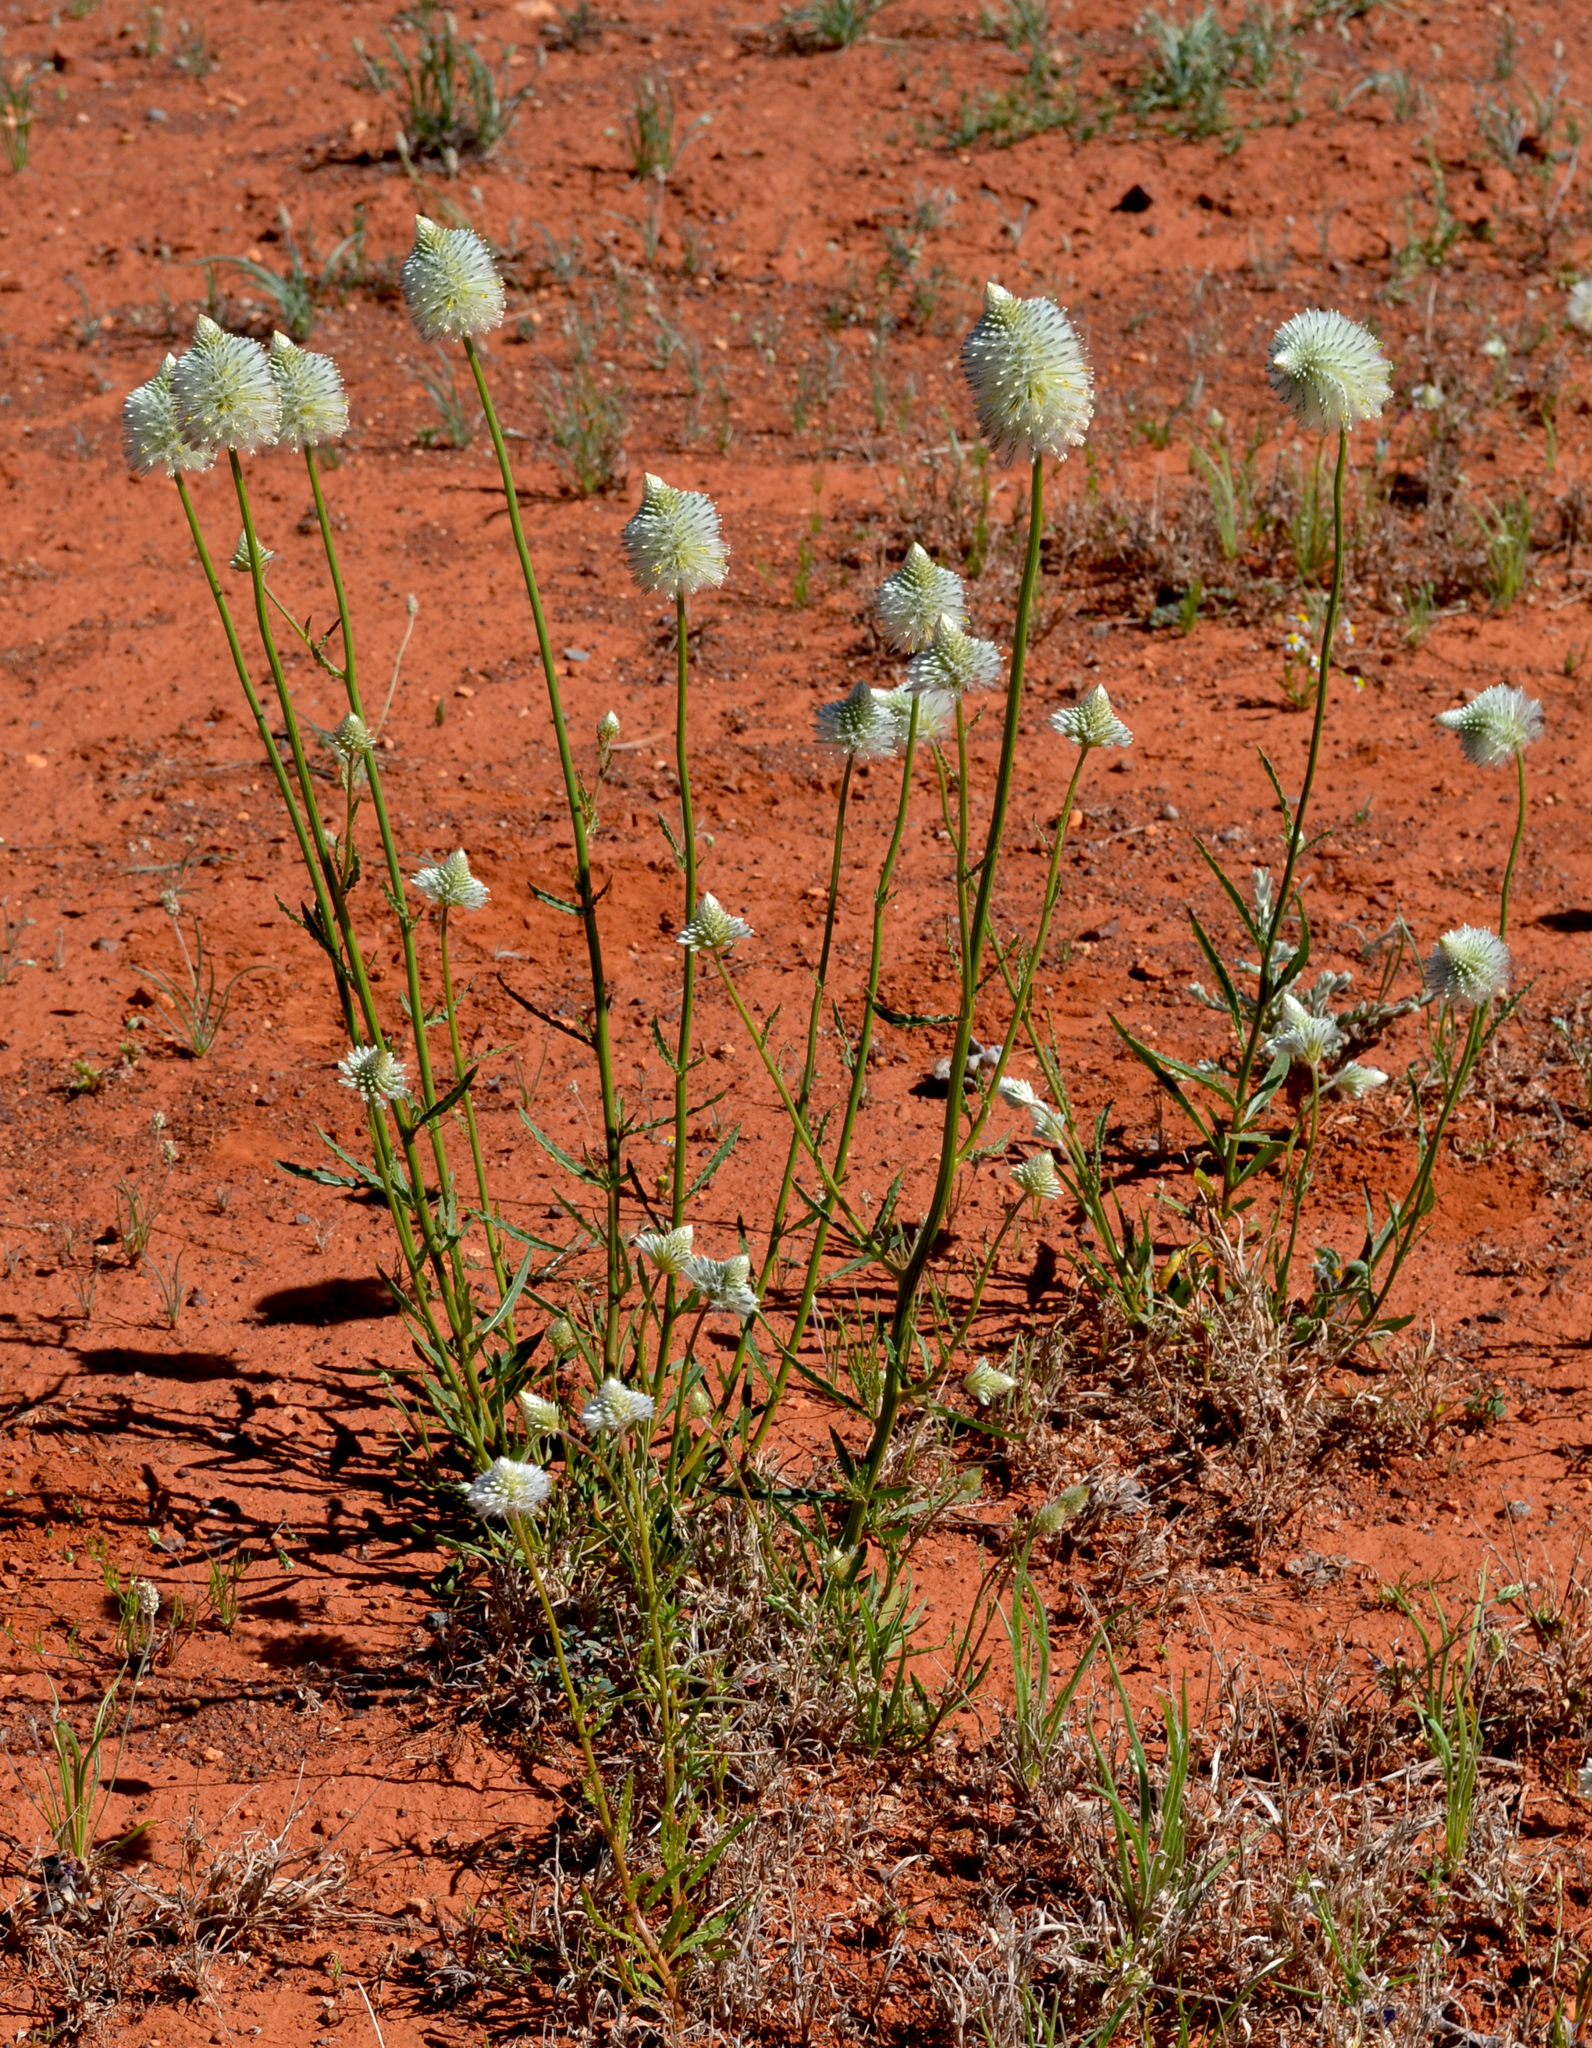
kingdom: Plantae
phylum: Tracheophyta
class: Magnoliopsida
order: Caryophyllales
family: Amaranthaceae
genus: Ptilotus
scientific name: Ptilotus xerophilus
